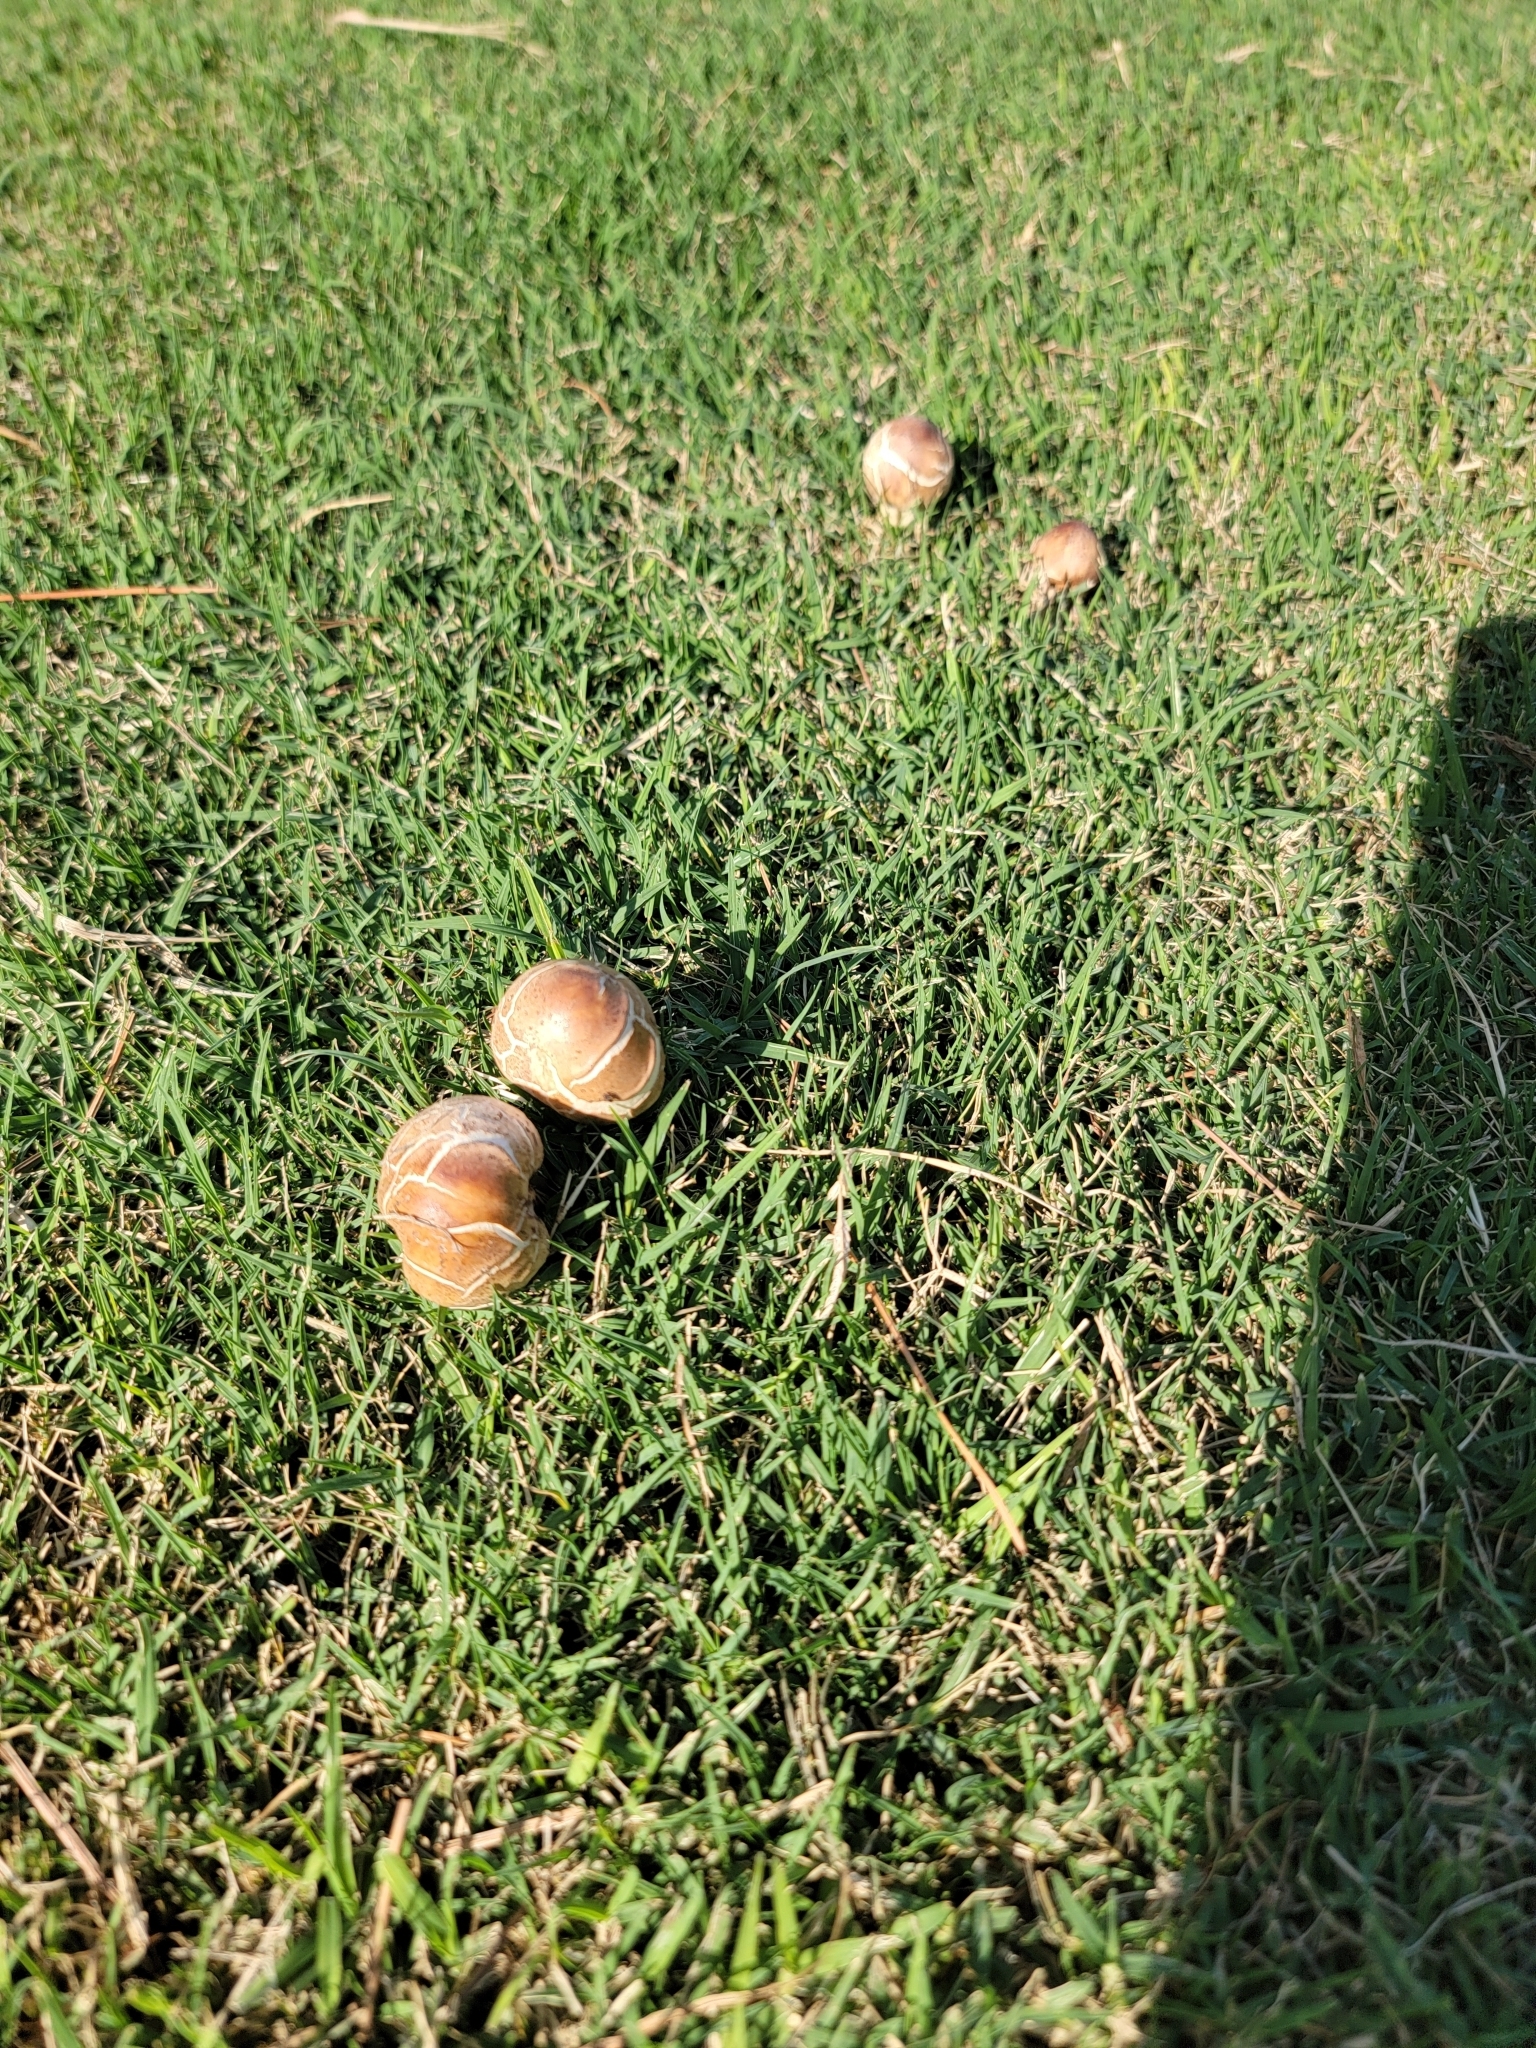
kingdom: Fungi
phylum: Basidiomycota
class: Agaricomycetes
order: Agaricales
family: Agaricaceae
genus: Chlorophyllum
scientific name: Chlorophyllum molybdites
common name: False parasol
